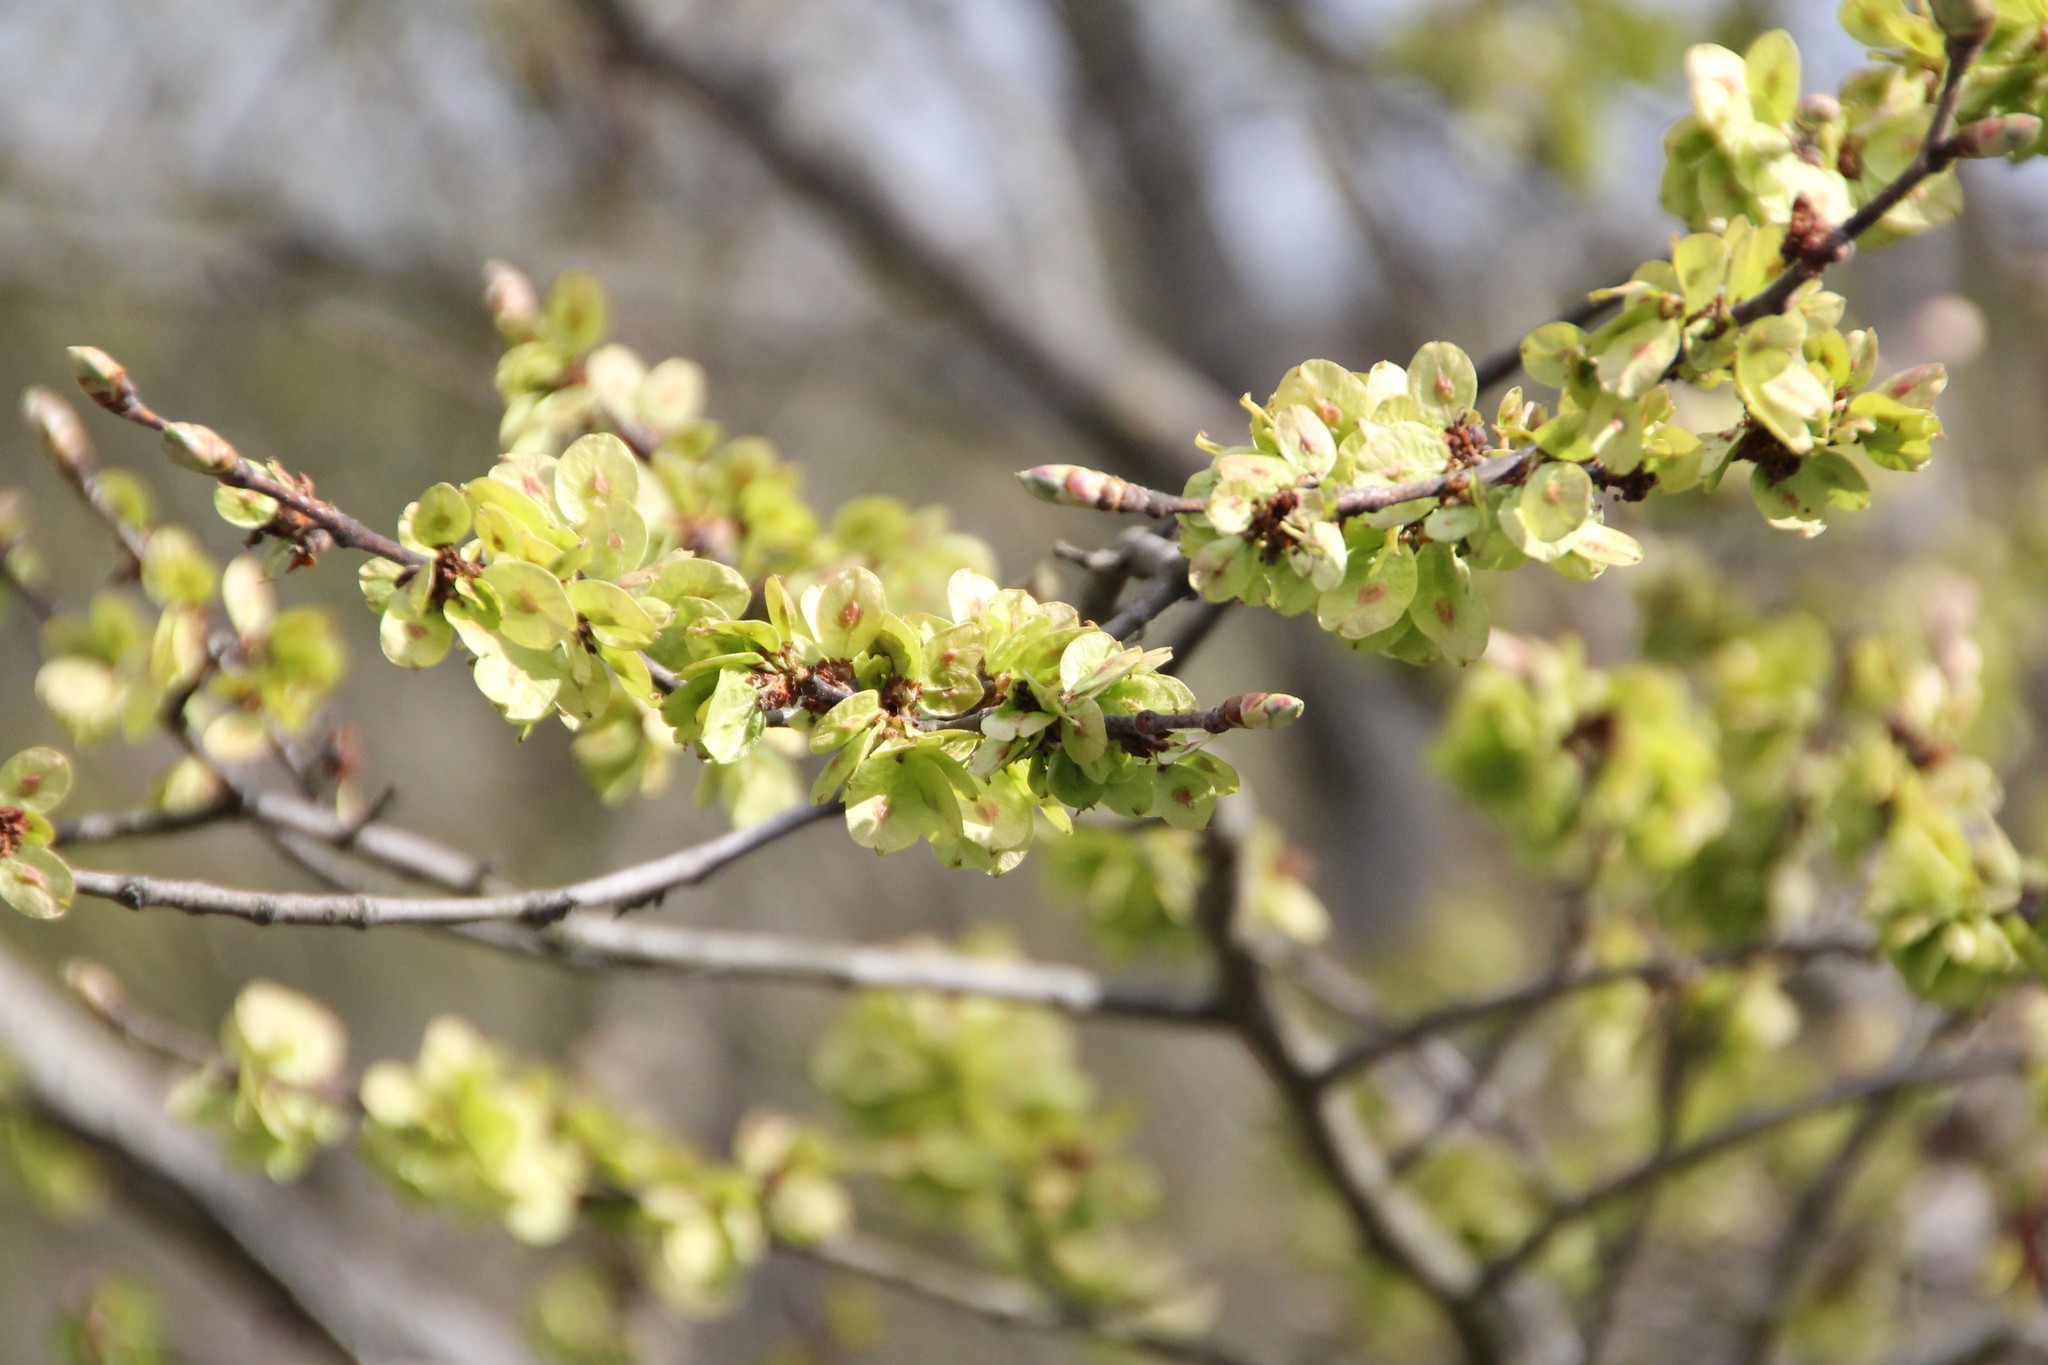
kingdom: Plantae
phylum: Tracheophyta
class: Magnoliopsida
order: Rosales
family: Ulmaceae
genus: Ulmus
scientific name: Ulmus glabra
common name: Wych elm
